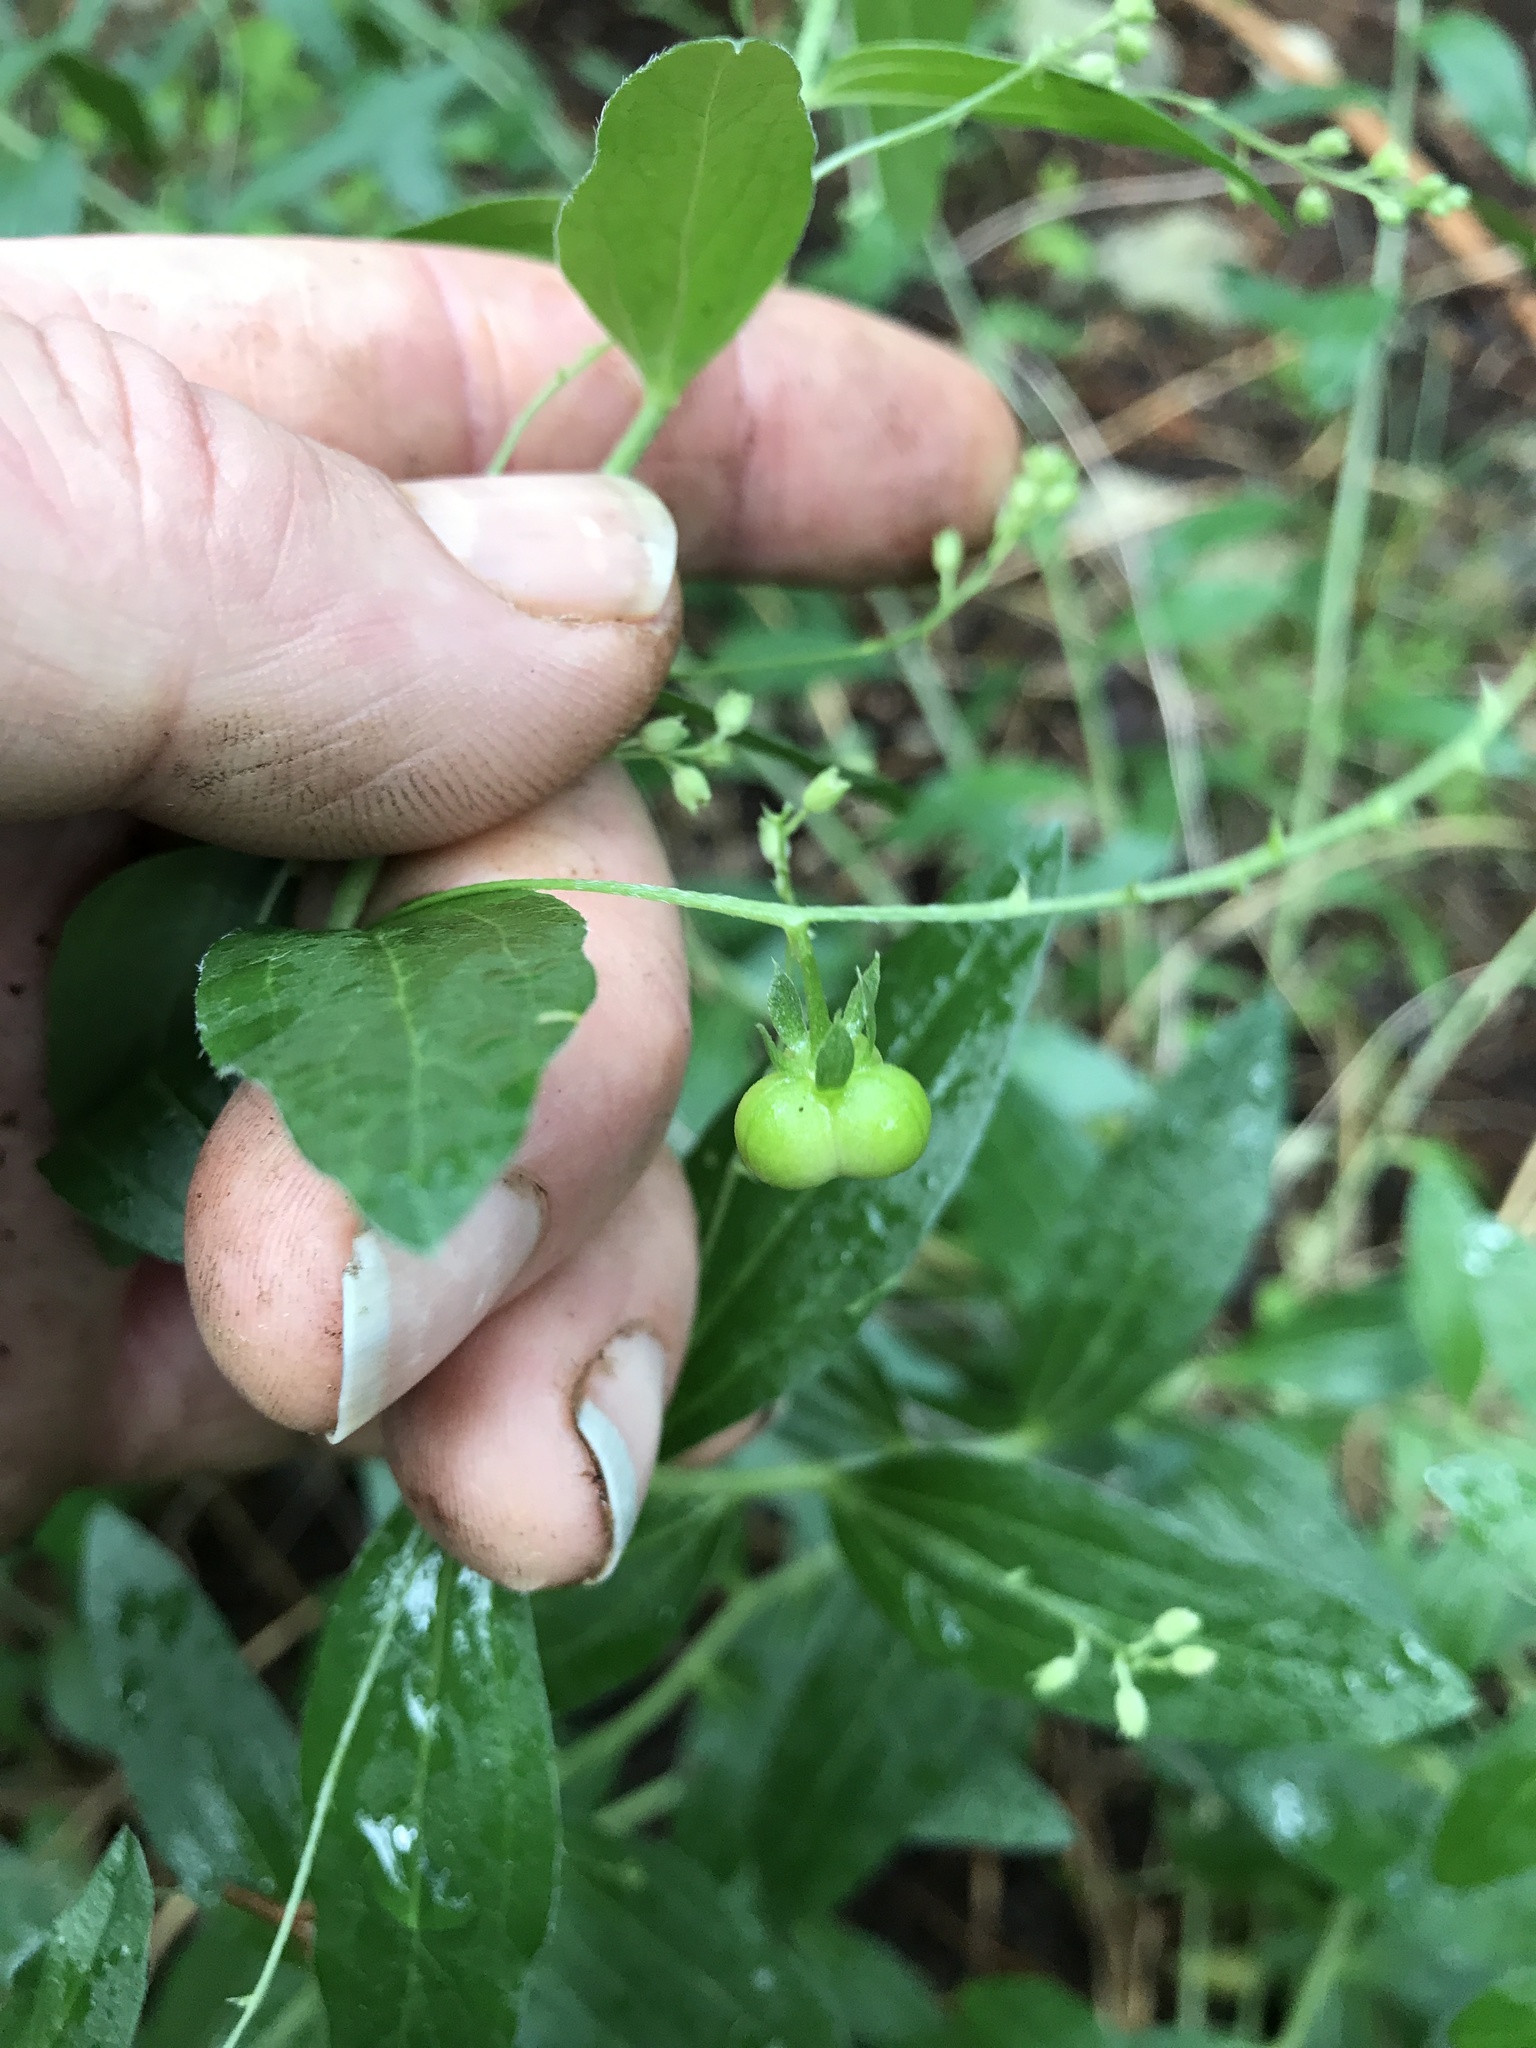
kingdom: Plantae
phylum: Tracheophyta
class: Magnoliopsida
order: Malpighiales
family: Euphorbiaceae
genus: Ditaxis
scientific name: Ditaxis mercurialina
